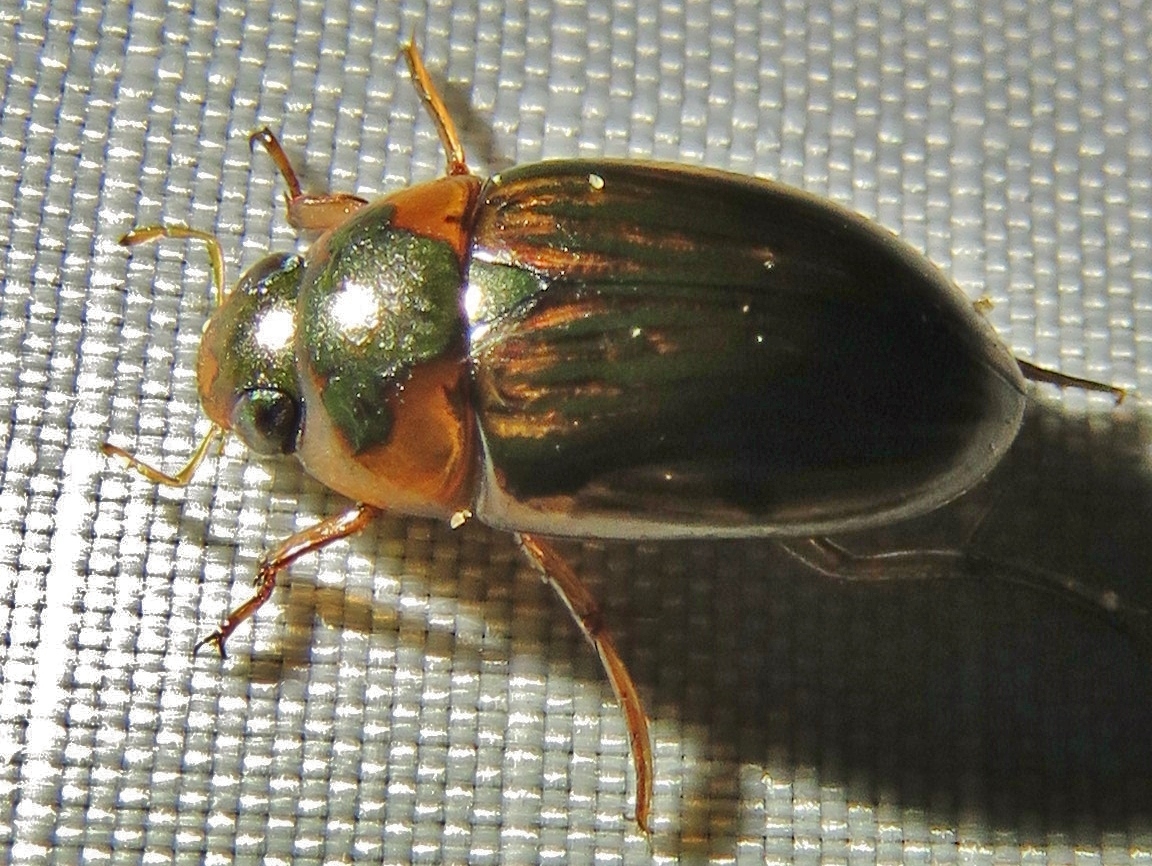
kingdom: Animalia
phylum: Arthropoda
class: Insecta
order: Coleoptera
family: Hydrophilidae
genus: Tropisternus
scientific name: Tropisternus collaris
